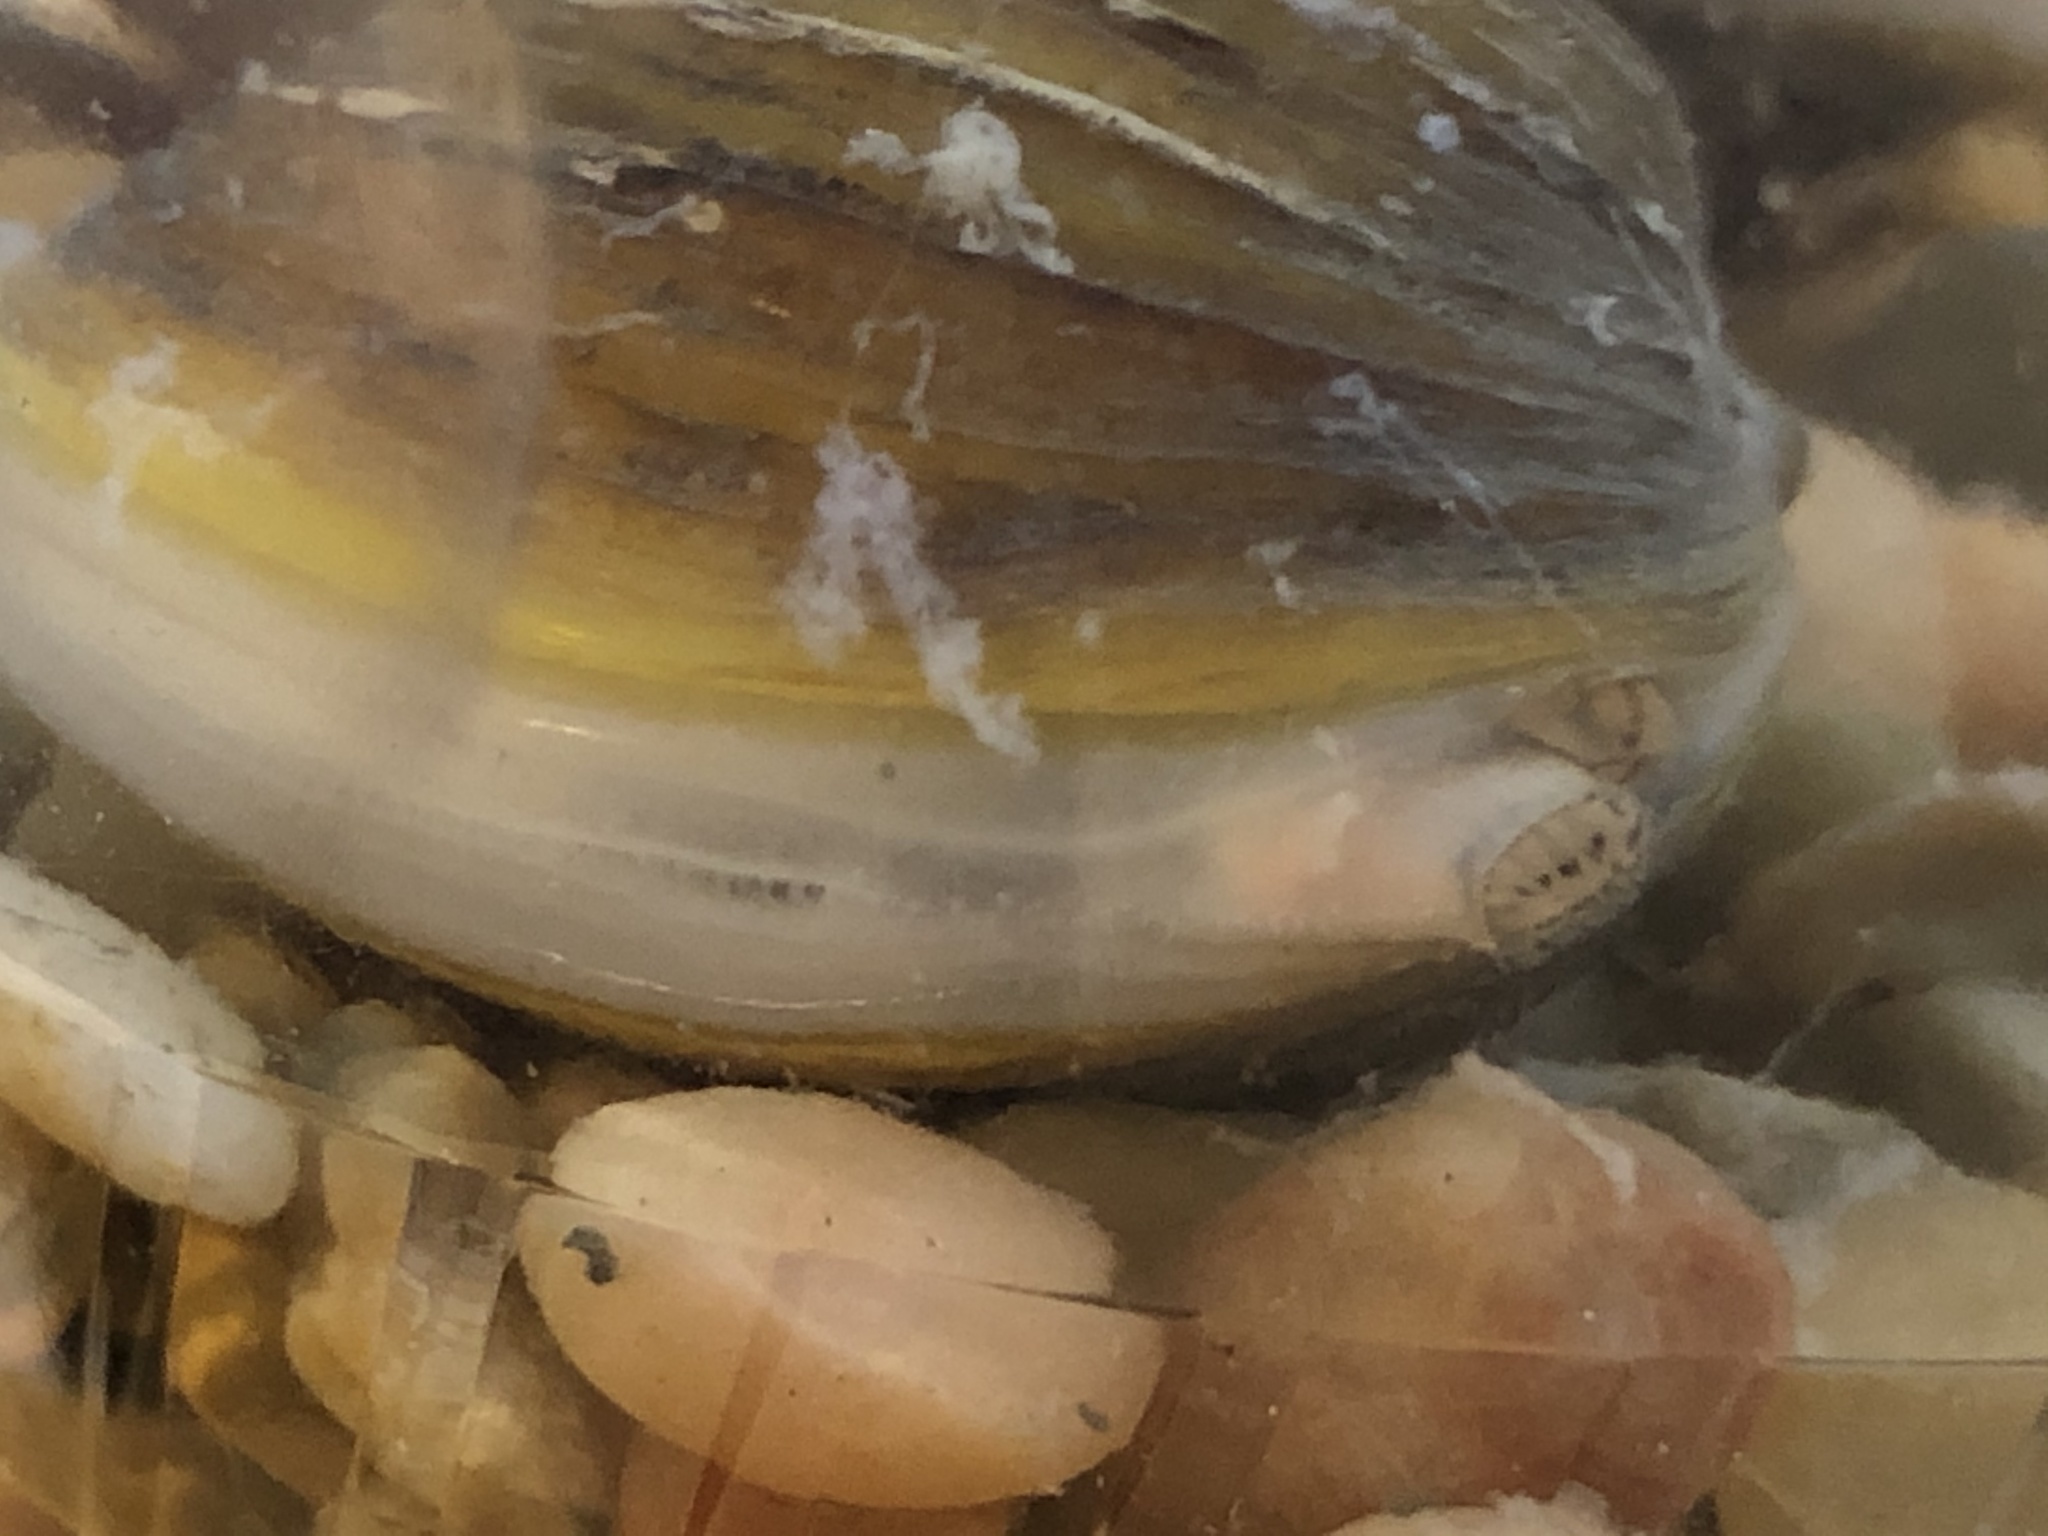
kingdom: Animalia
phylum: Mollusca
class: Bivalvia
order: Venerida
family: Cyrenidae
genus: Corbicula
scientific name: Corbicula fluminea
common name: Asian clam
